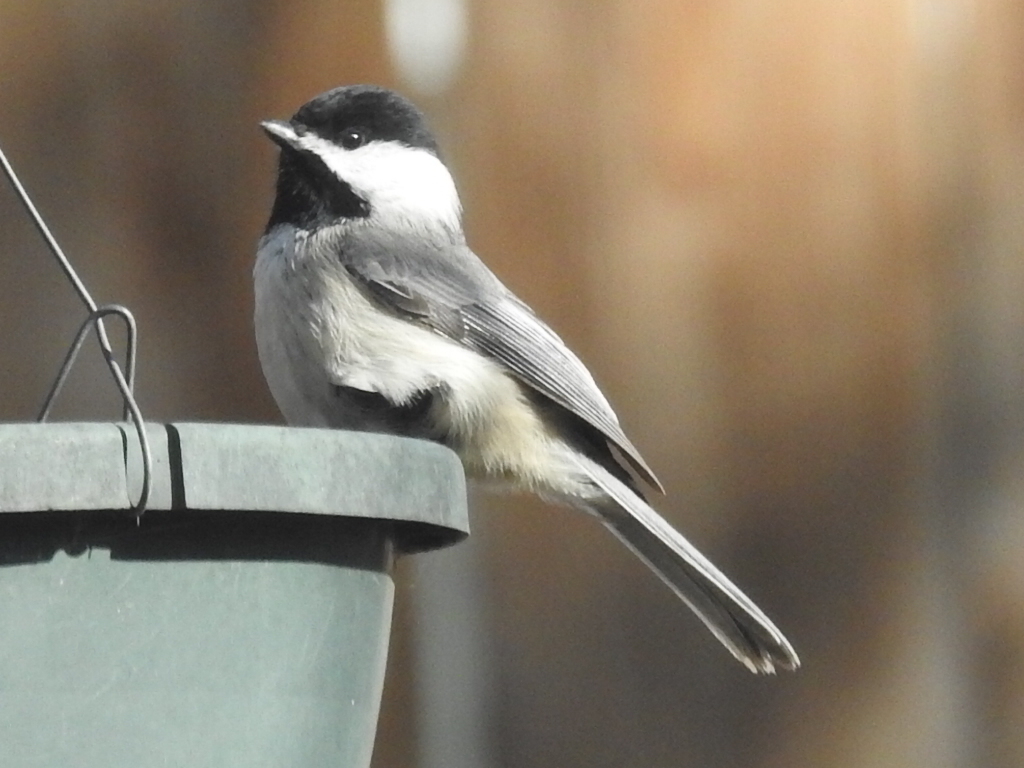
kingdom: Animalia
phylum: Chordata
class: Aves
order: Passeriformes
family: Paridae
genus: Poecile
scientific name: Poecile carolinensis
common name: Carolina chickadee
